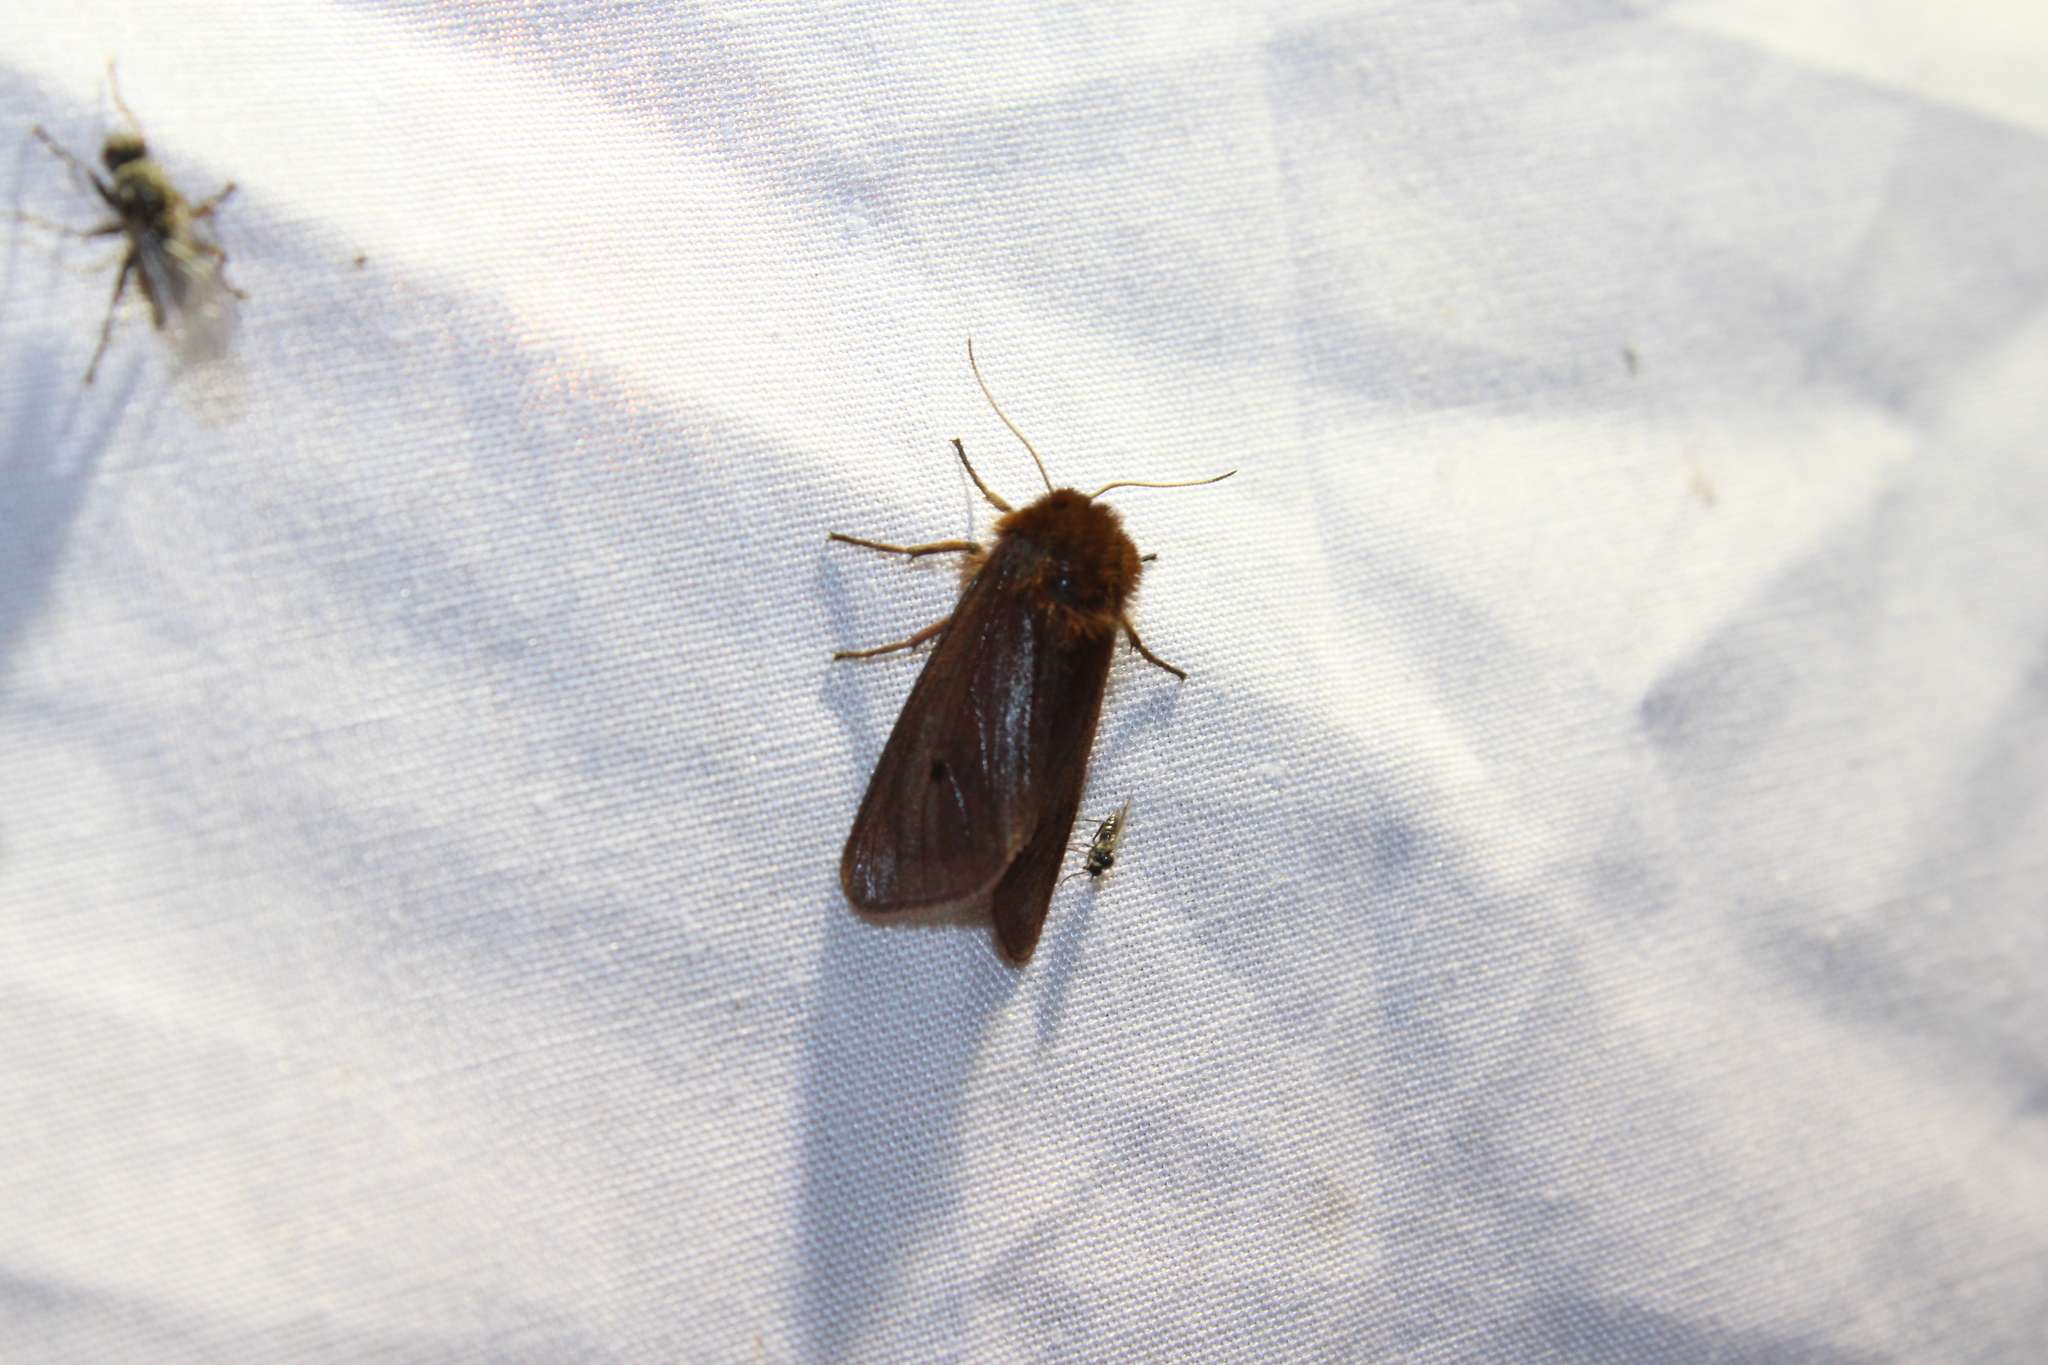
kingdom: Animalia
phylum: Arthropoda
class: Insecta
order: Lepidoptera
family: Erebidae
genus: Phragmatobia
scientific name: Phragmatobia fuliginosa
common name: Ruby tiger
